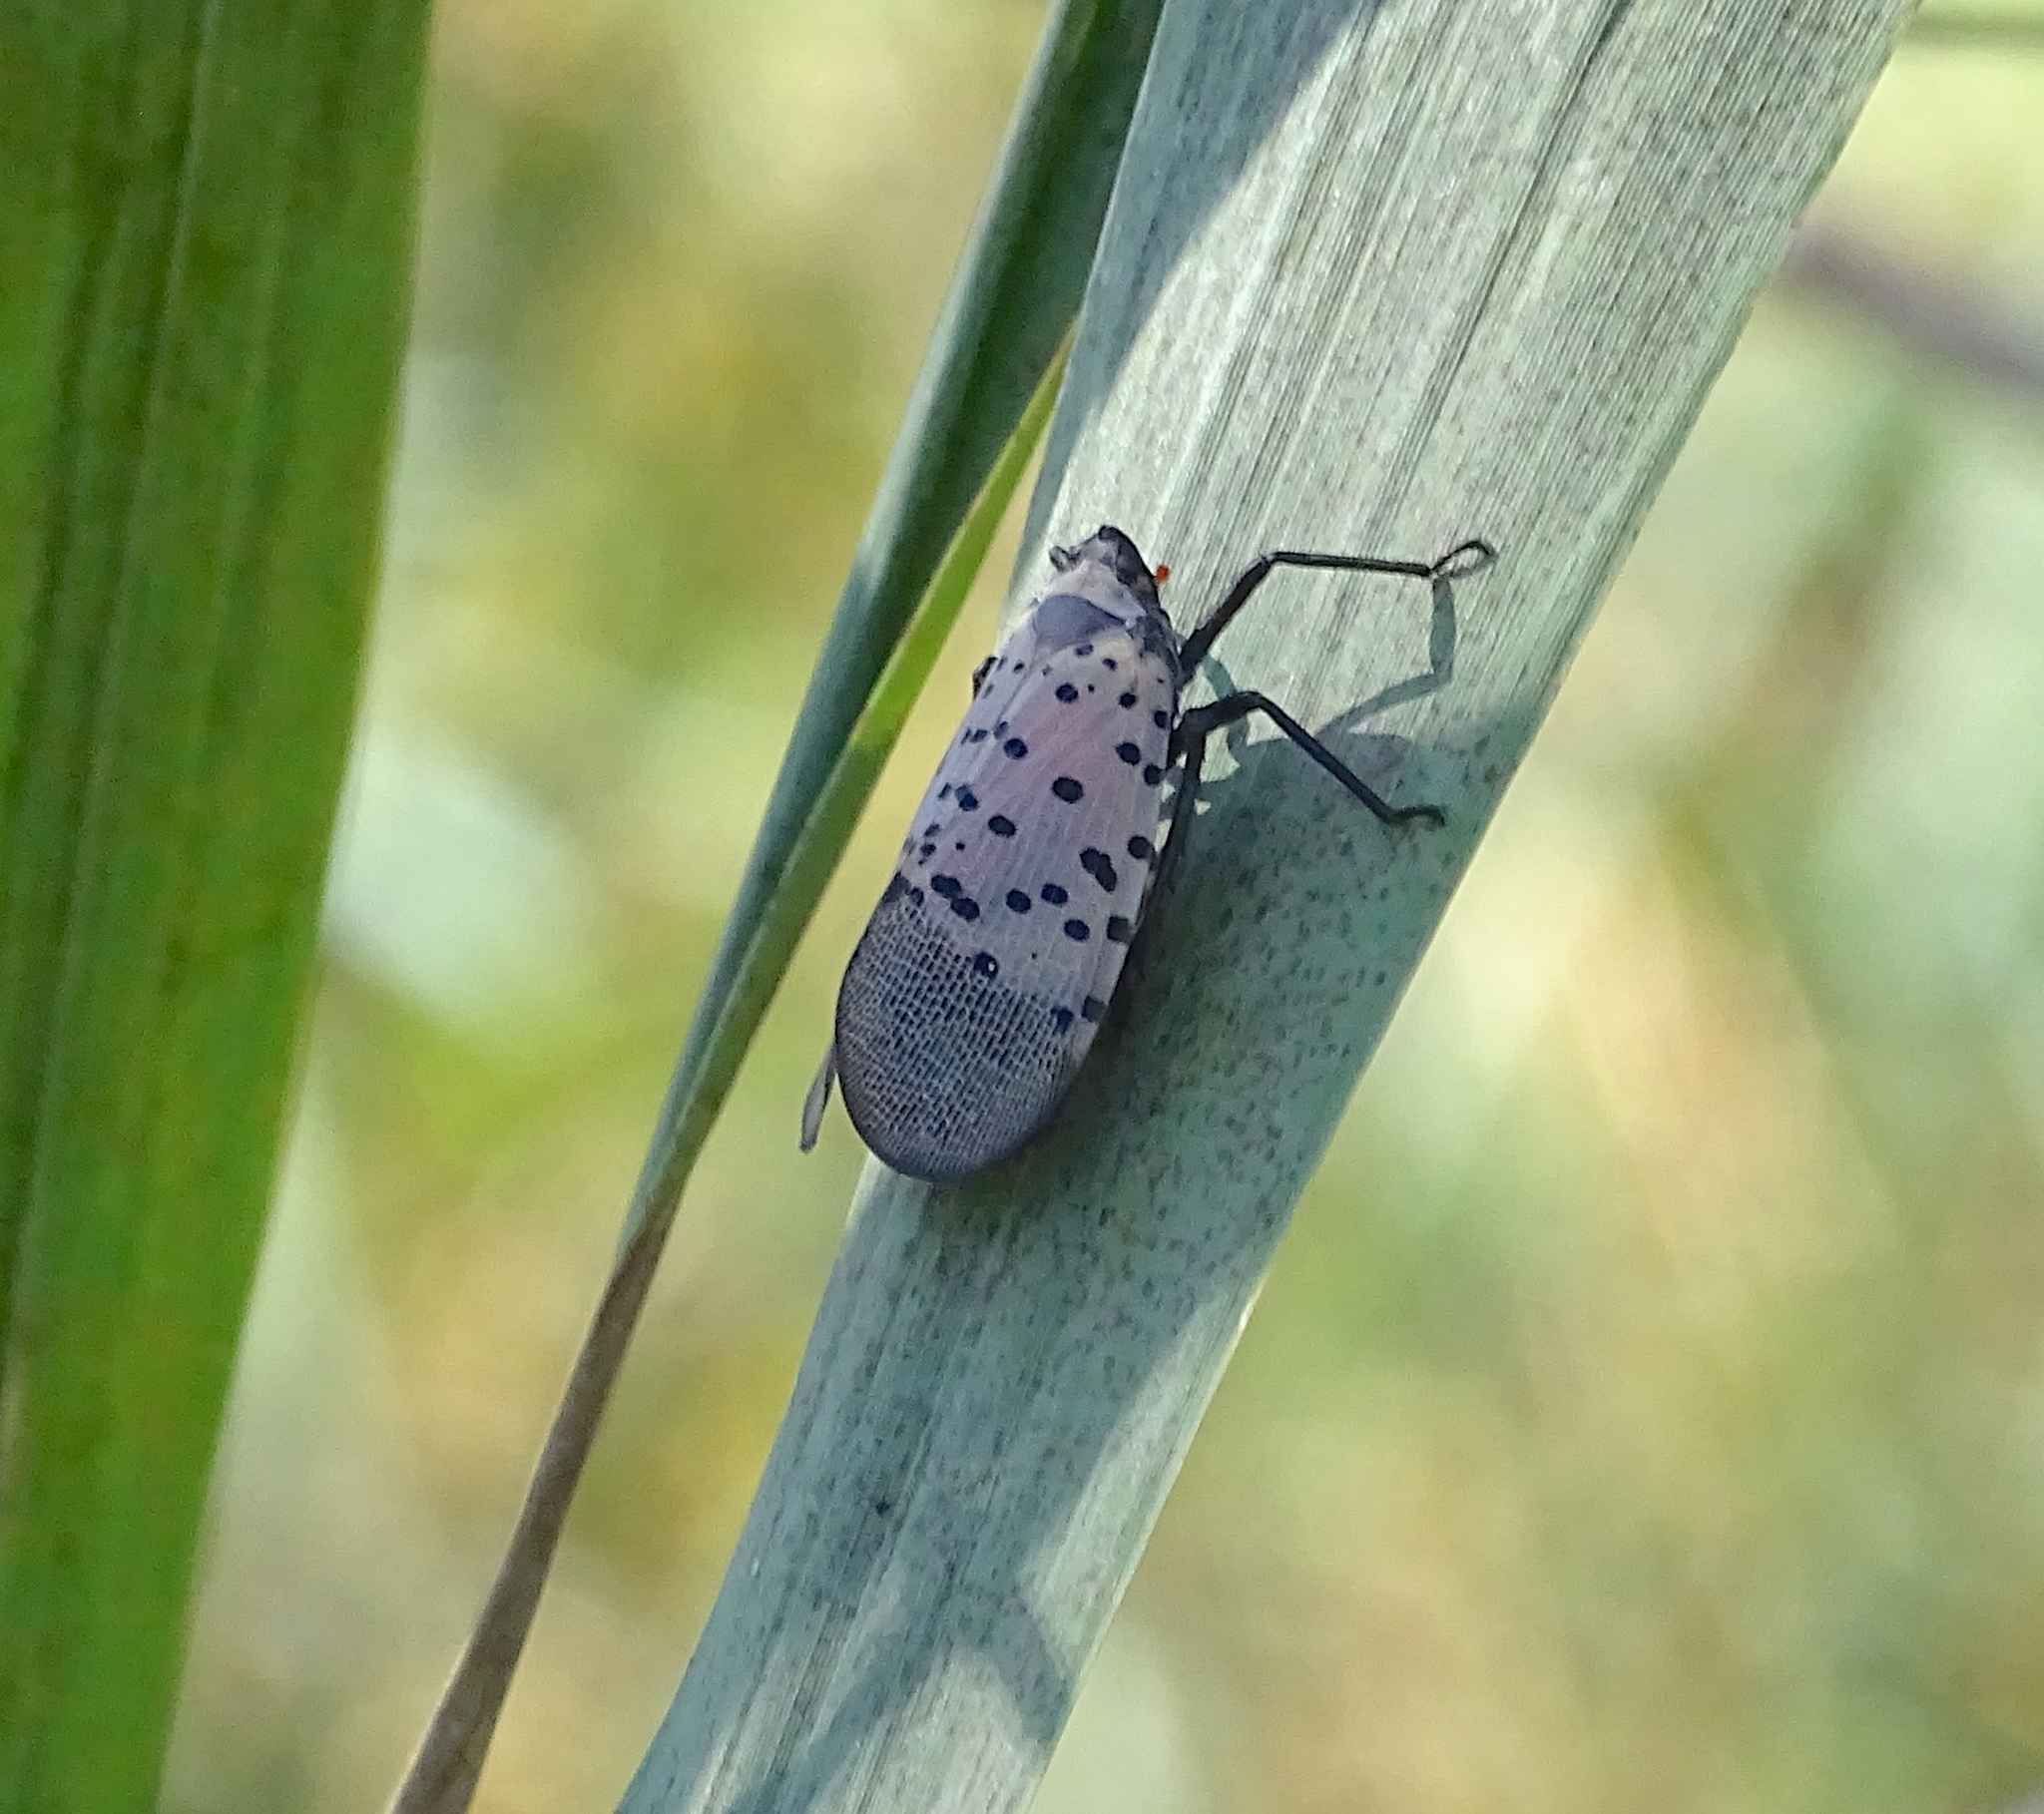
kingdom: Animalia
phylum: Arthropoda
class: Insecta
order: Hemiptera
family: Fulgoridae
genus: Lycorma
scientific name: Lycorma delicatula
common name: Spotted lanternfly
